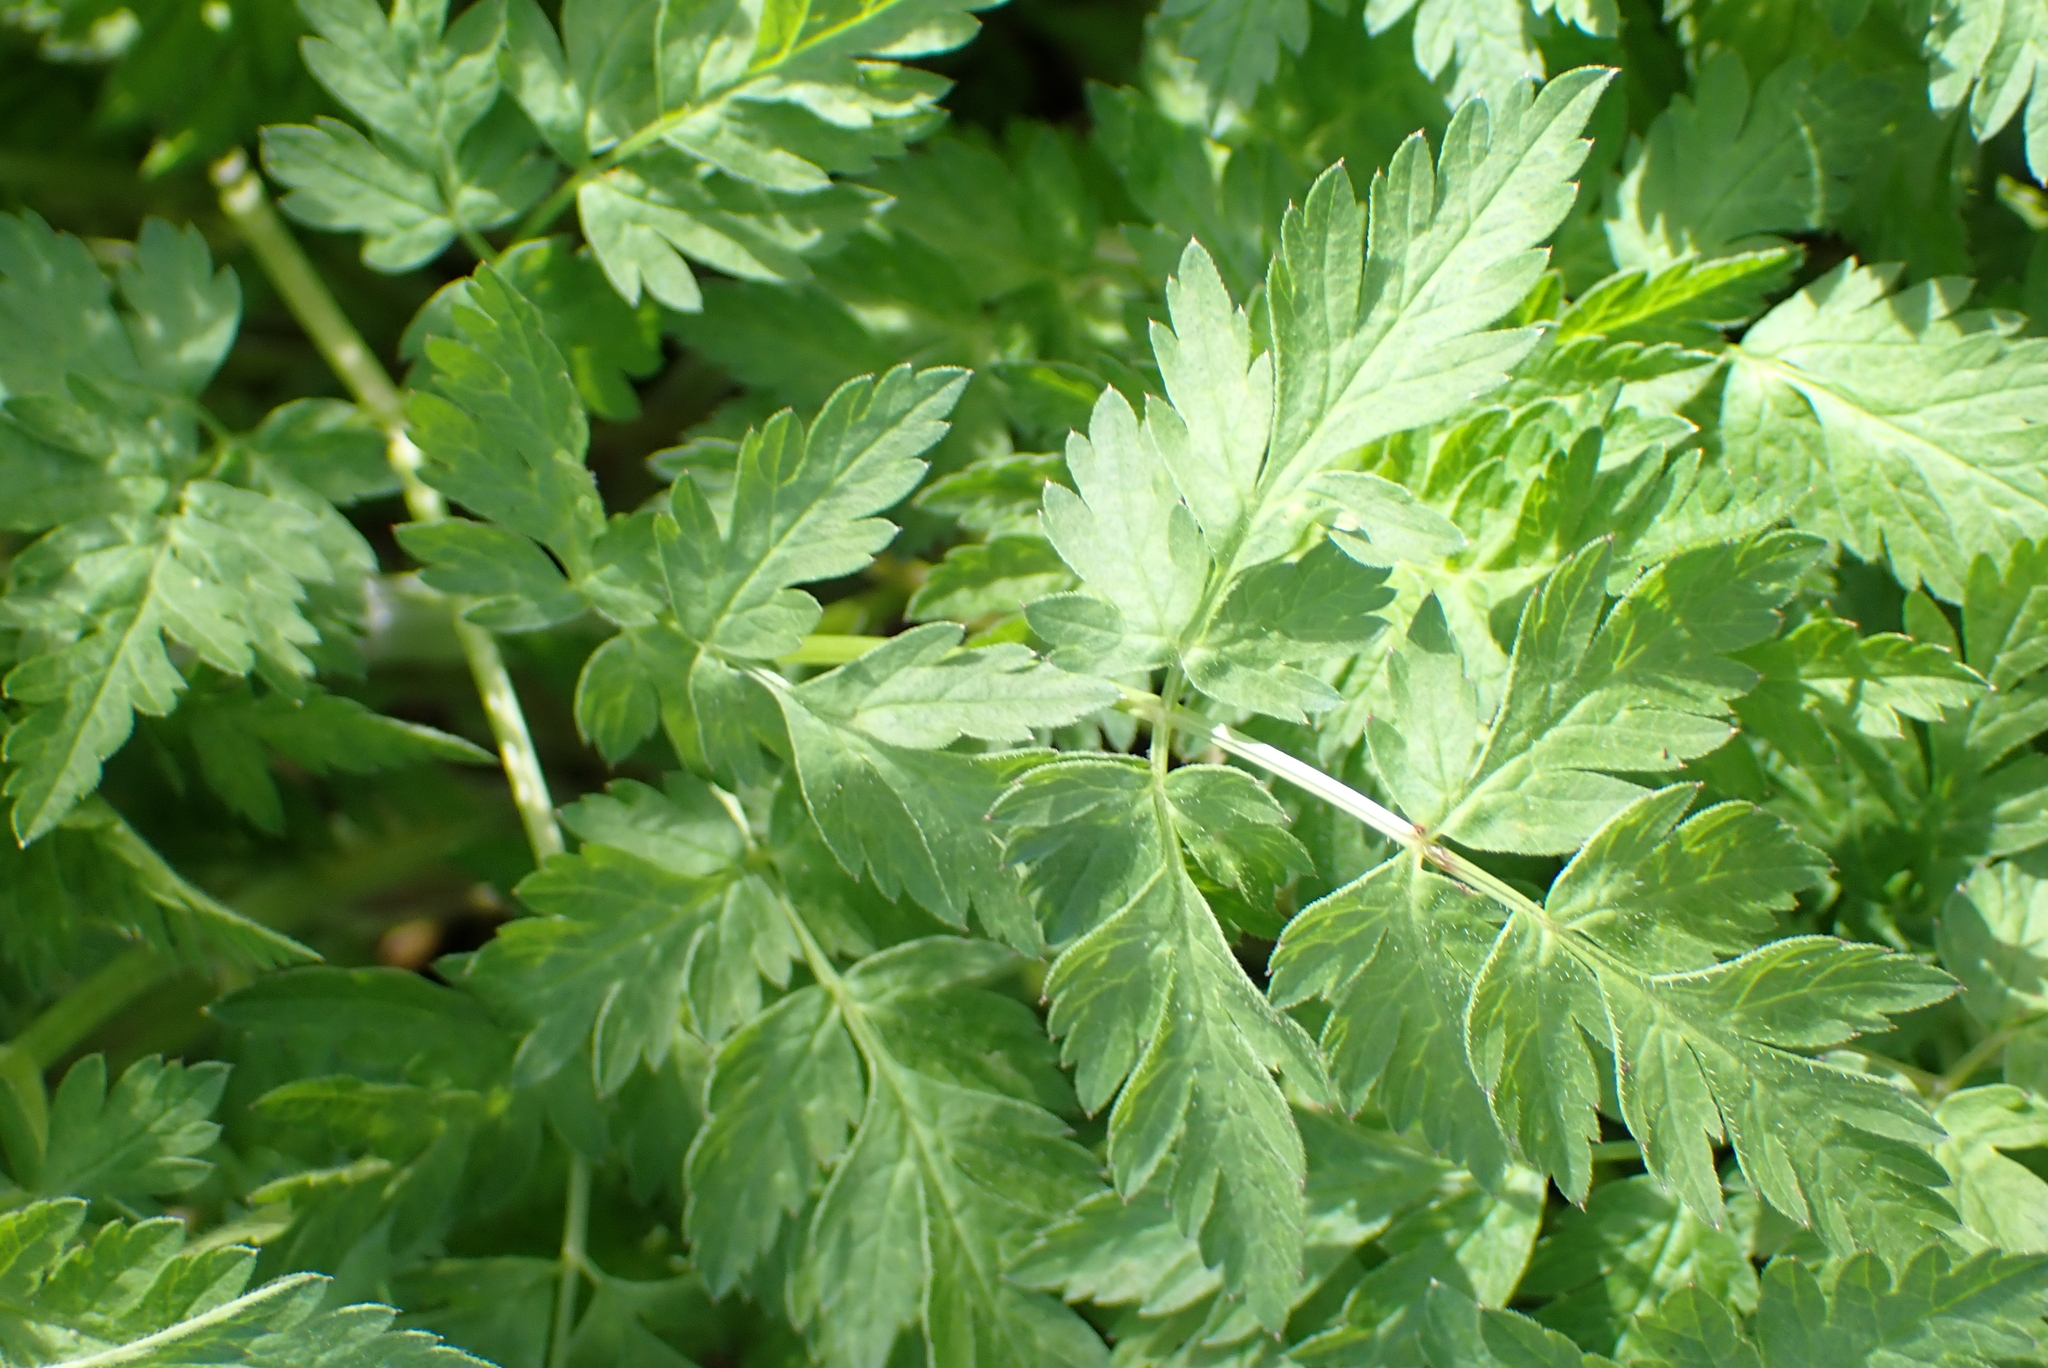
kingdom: Plantae
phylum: Tracheophyta
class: Magnoliopsida
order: Apiales
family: Apiaceae
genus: Anthriscus
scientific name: Anthriscus sylvestris
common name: Cow parsley
